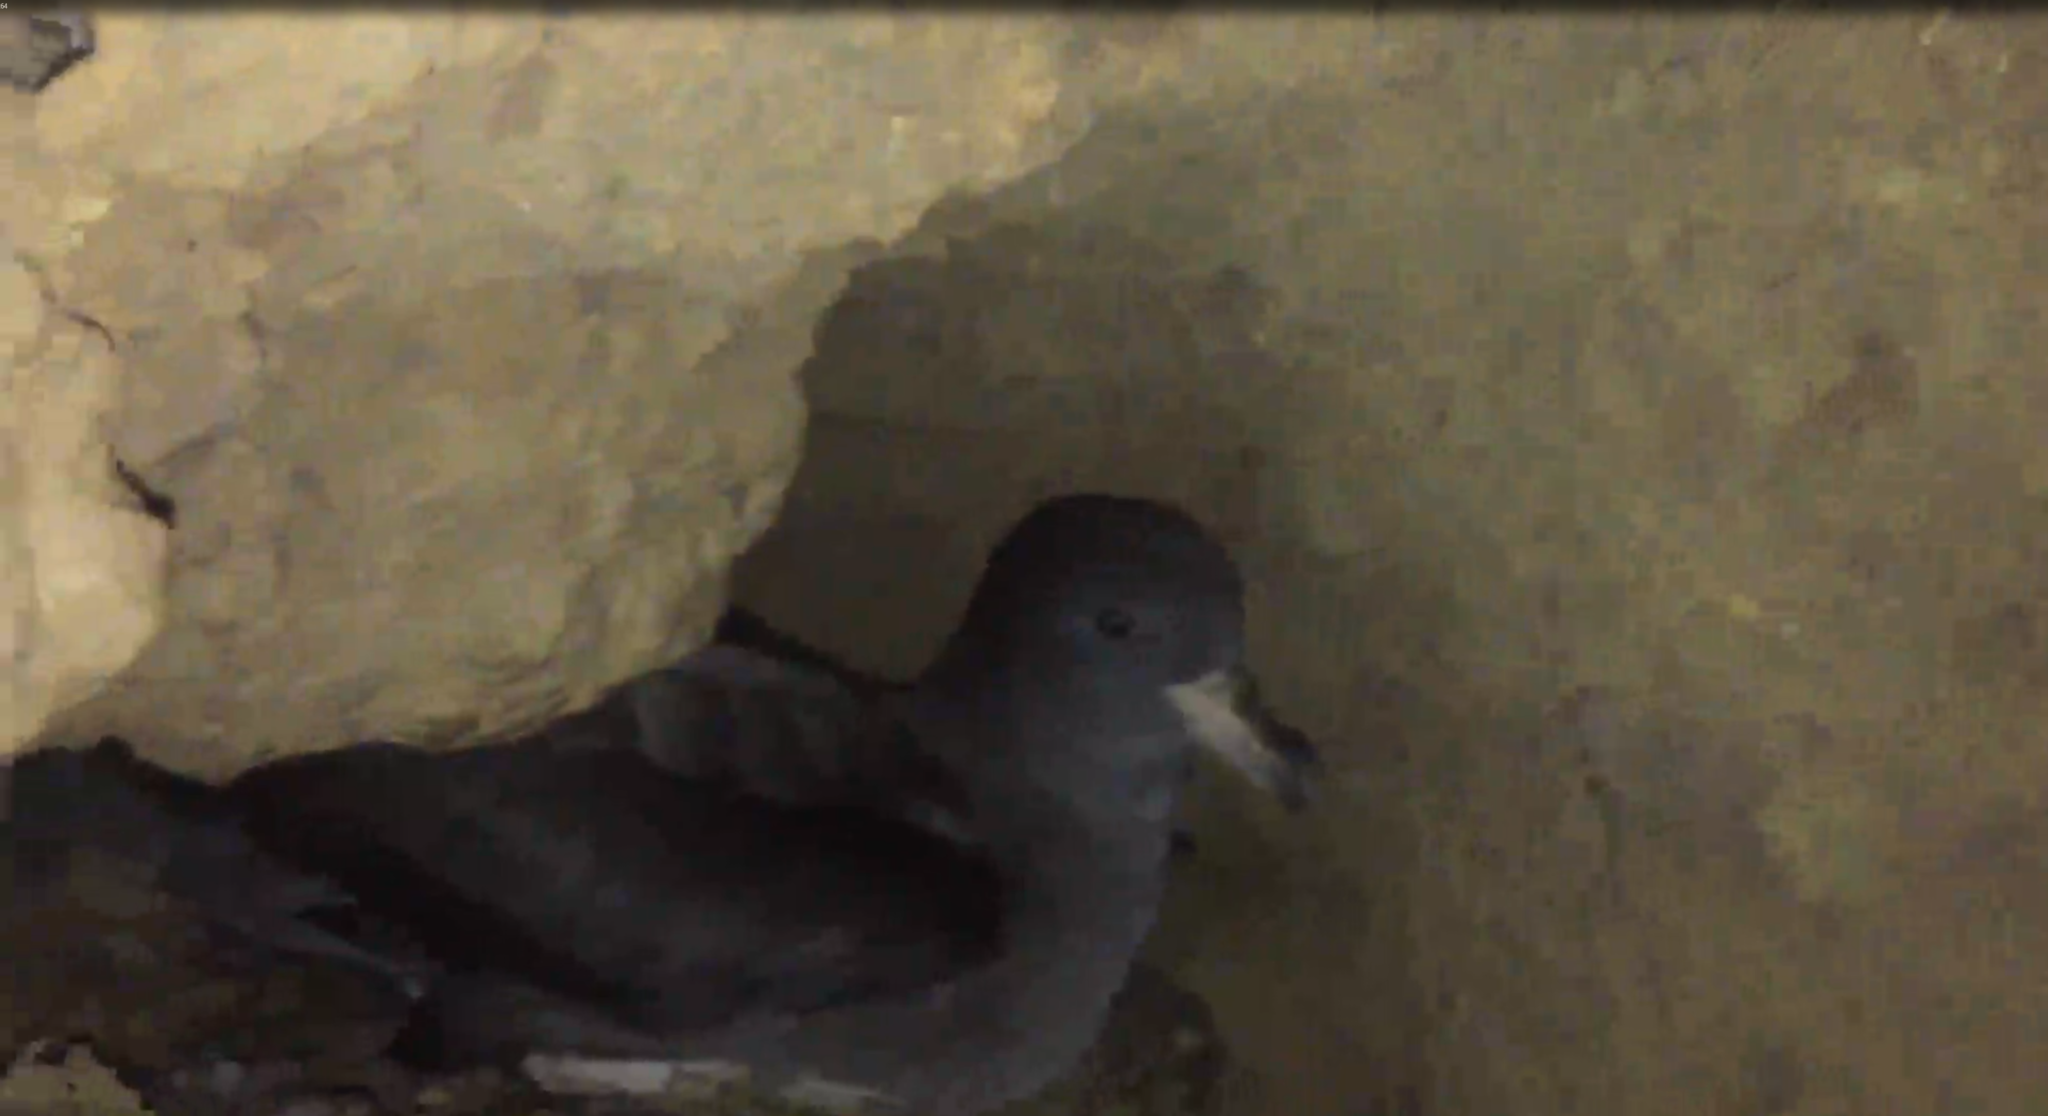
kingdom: Animalia
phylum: Chordata
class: Aves
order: Procellariiformes
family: Procellariidae
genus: Puffinus
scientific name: Puffinus carneipes
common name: Flesh-footed shearwater
